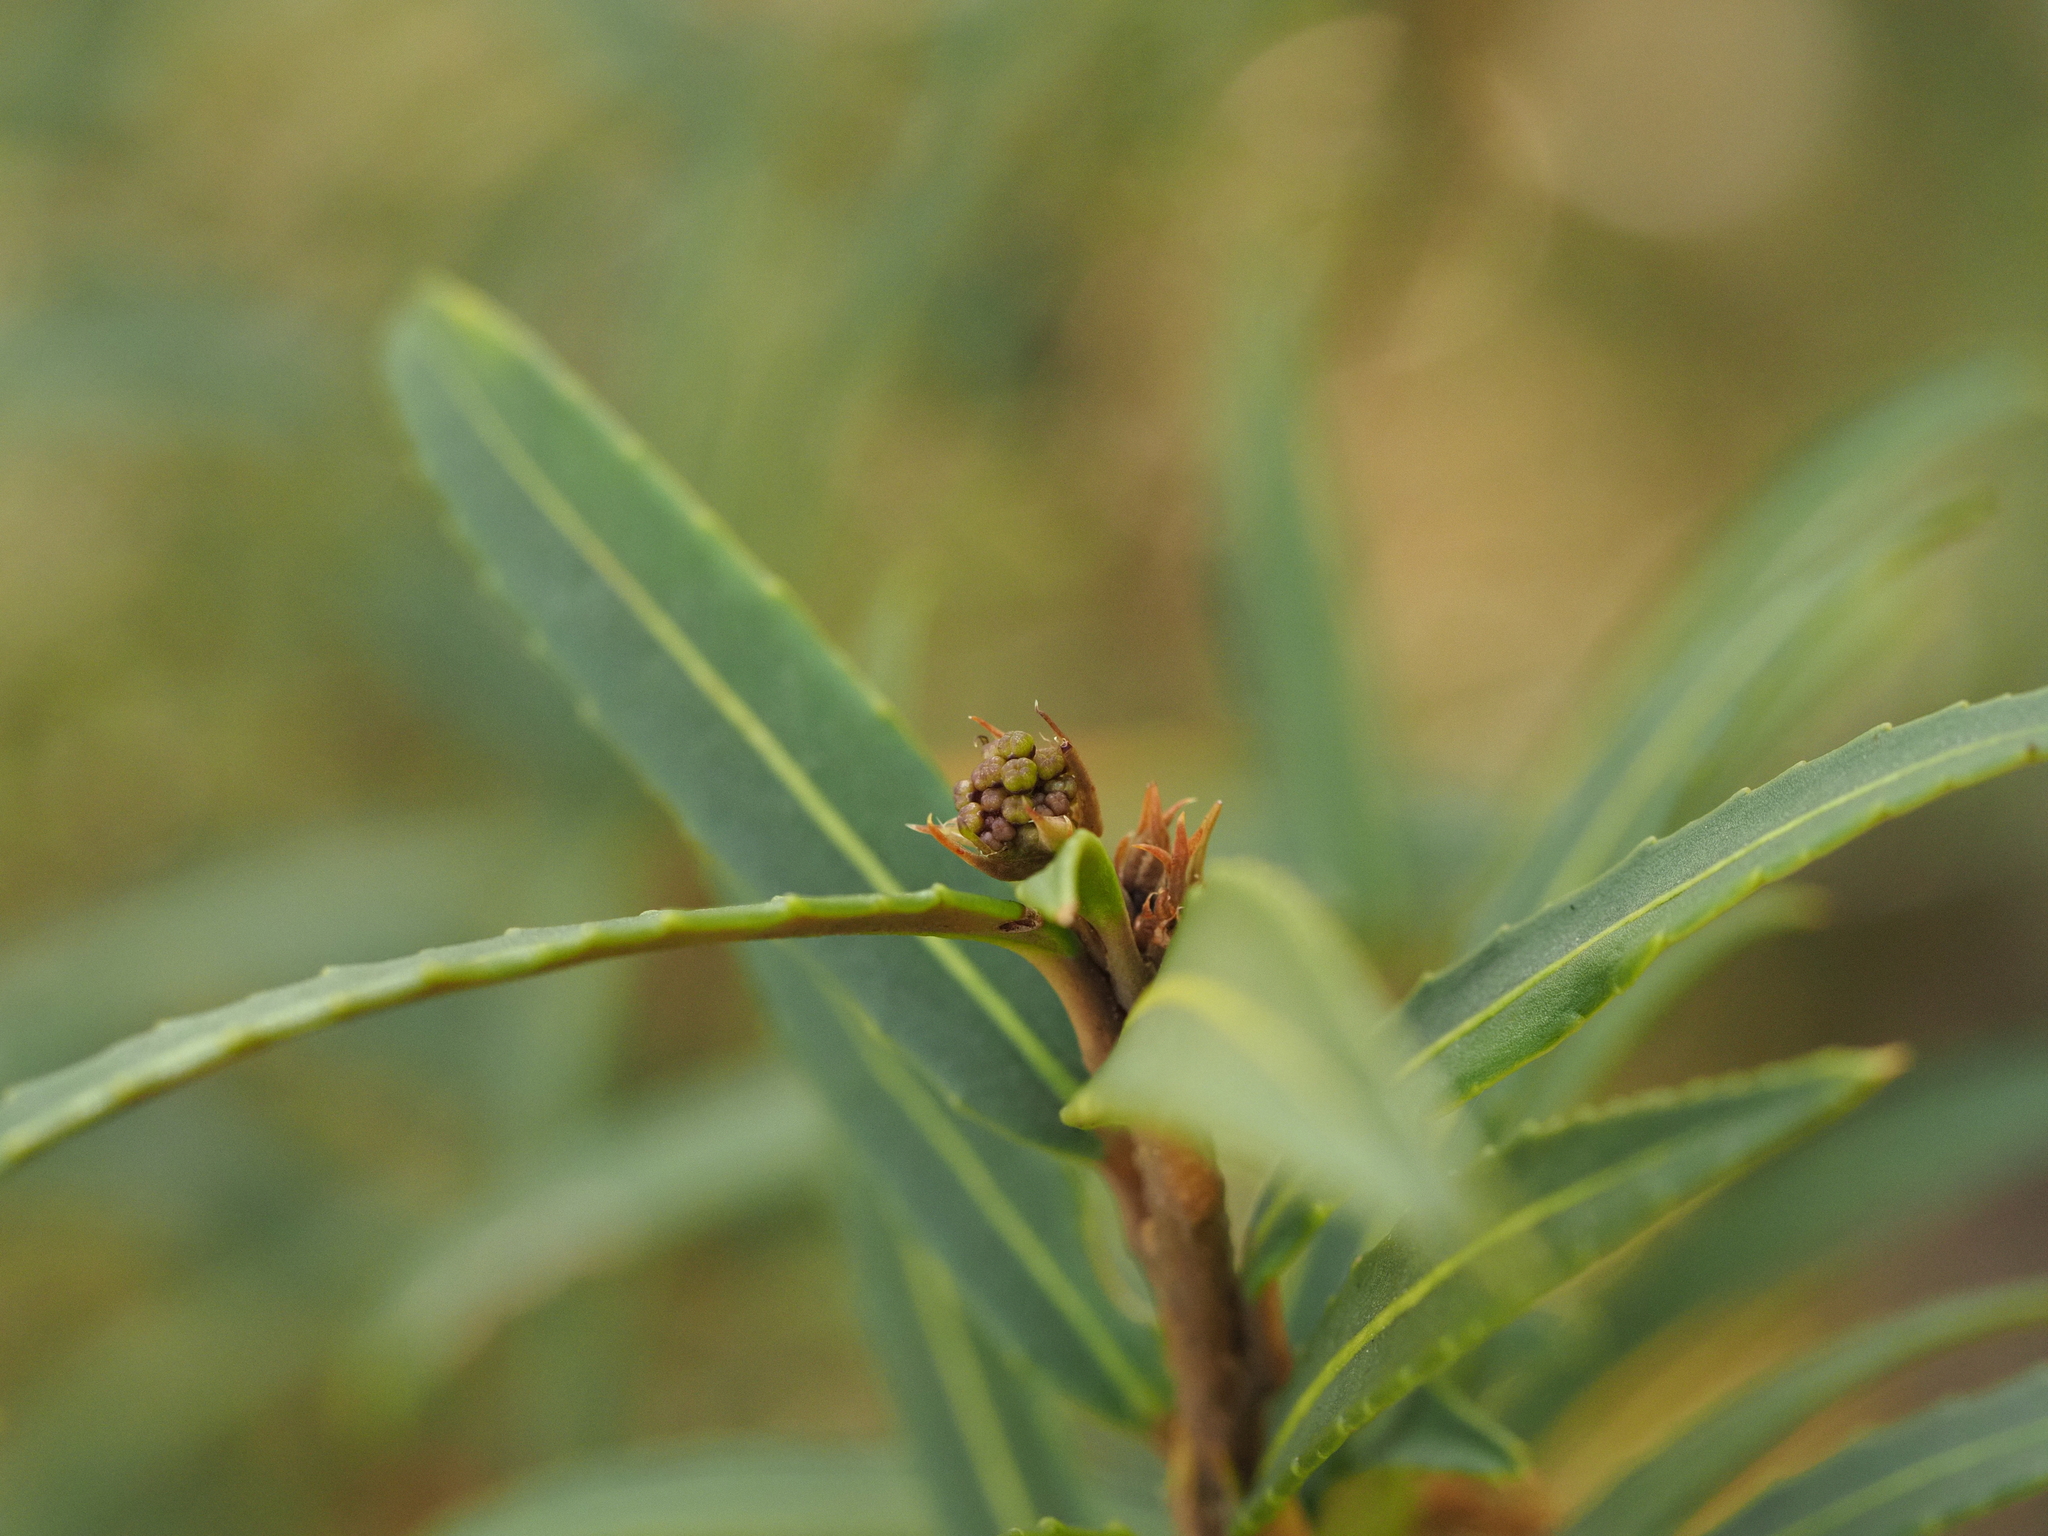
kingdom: Plantae
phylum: Tracheophyta
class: Magnoliopsida
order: Apiales
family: Araliaceae
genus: Pseudopanax
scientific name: Pseudopanax linearis
